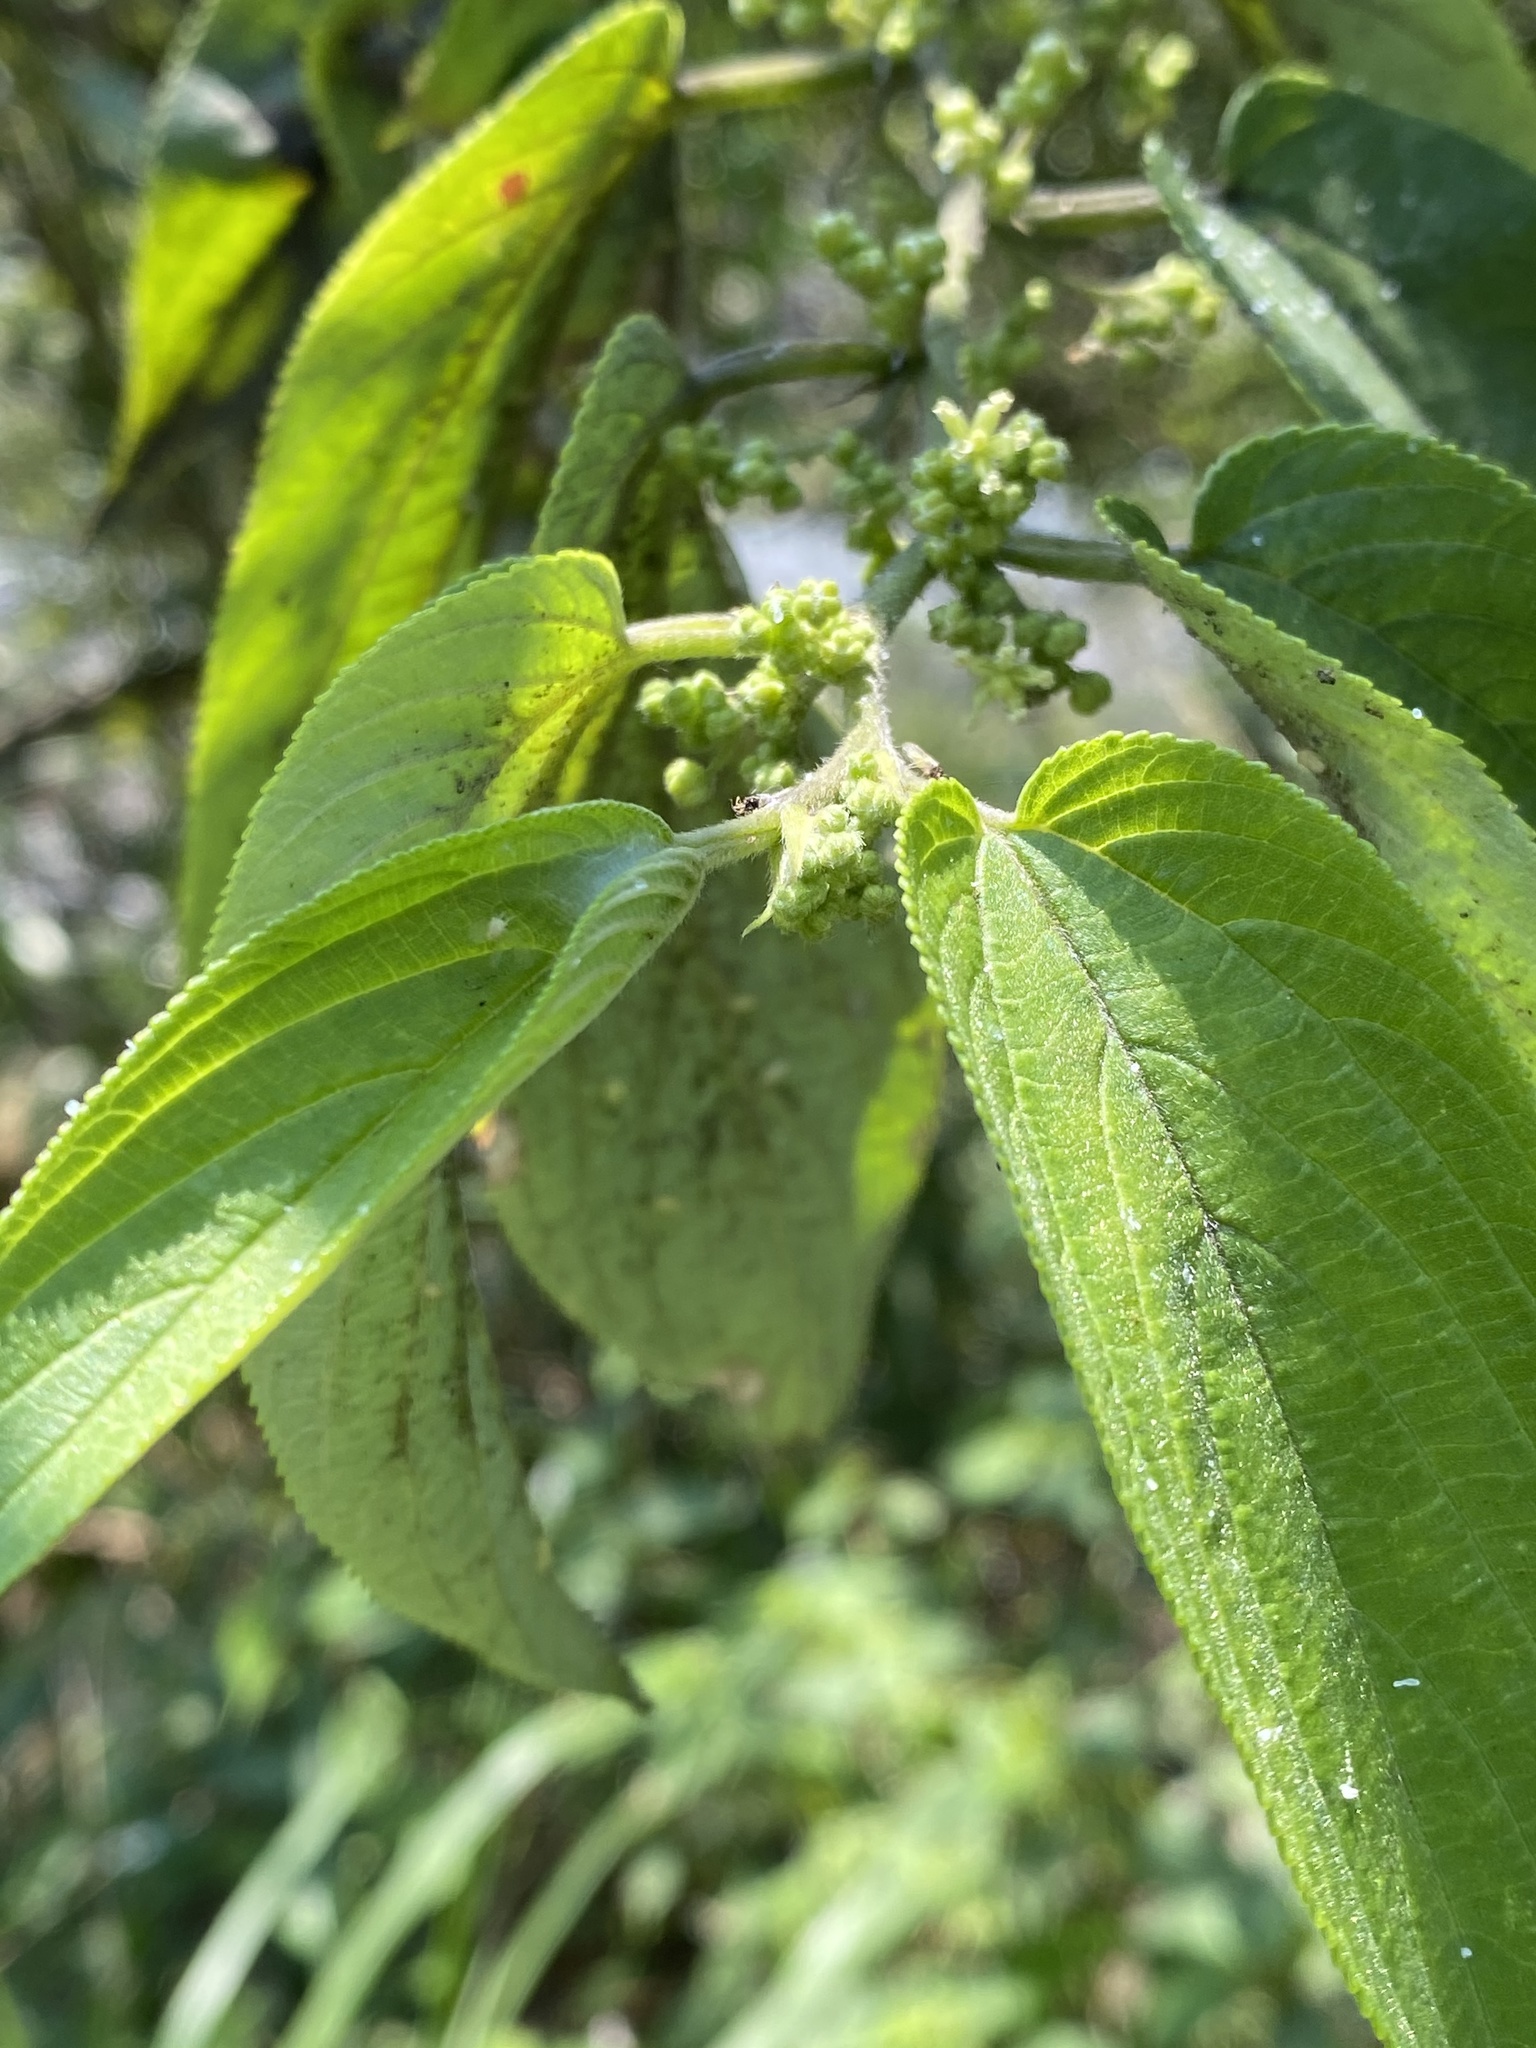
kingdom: Plantae
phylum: Tracheophyta
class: Magnoliopsida
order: Rosales
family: Cannabaceae
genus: Trema
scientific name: Trema tomentosum
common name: Peach-leaf-poisonbush
